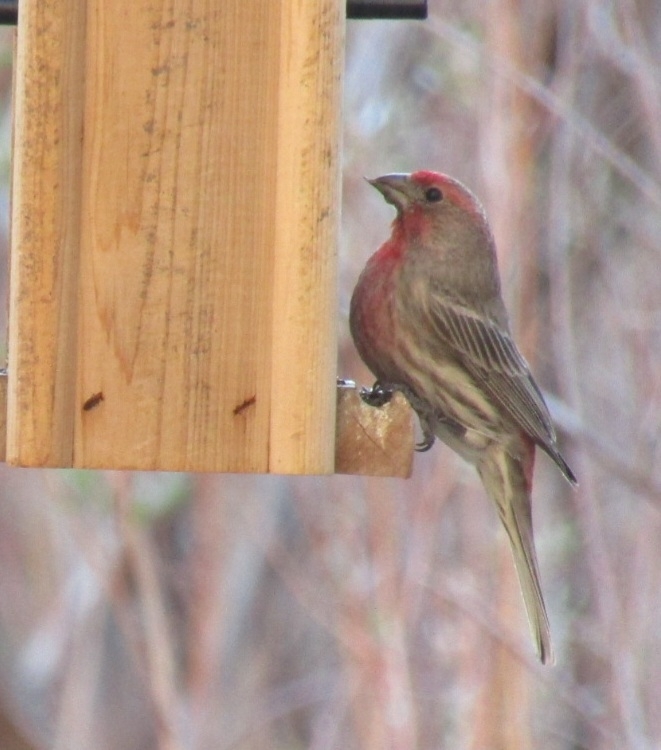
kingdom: Animalia
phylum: Chordata
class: Aves
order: Passeriformes
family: Fringillidae
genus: Haemorhous
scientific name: Haemorhous mexicanus
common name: House finch
